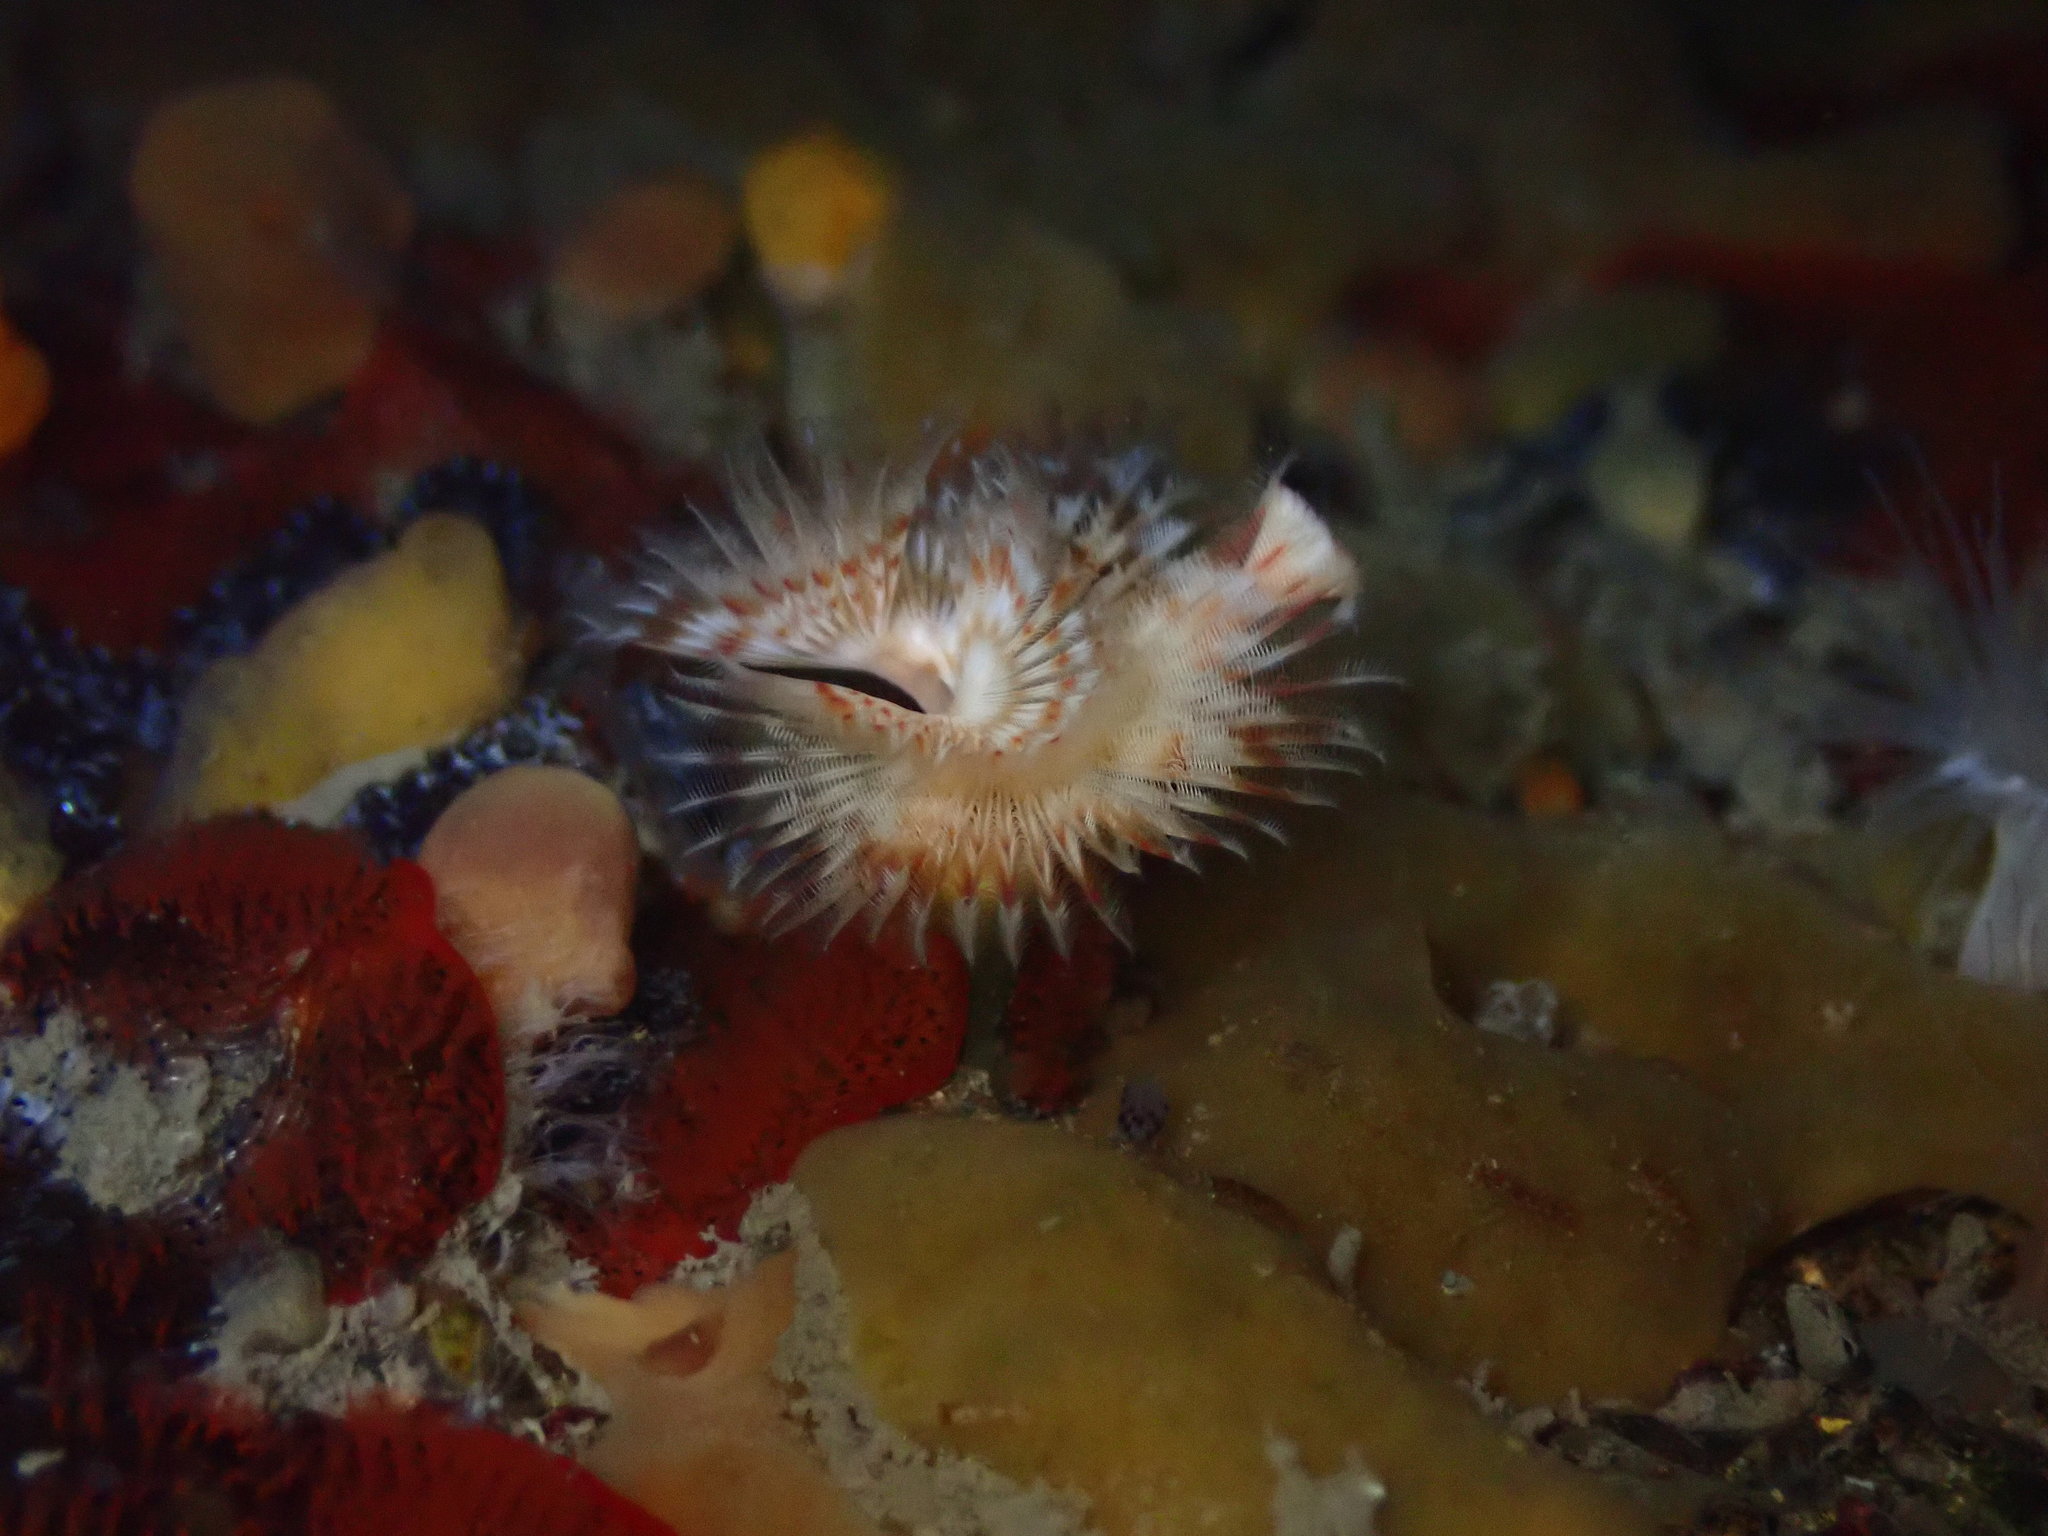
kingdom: Animalia
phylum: Annelida
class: Polychaeta
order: Sabellida
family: Serpulidae
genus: Serpula
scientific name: Serpula columbiana
